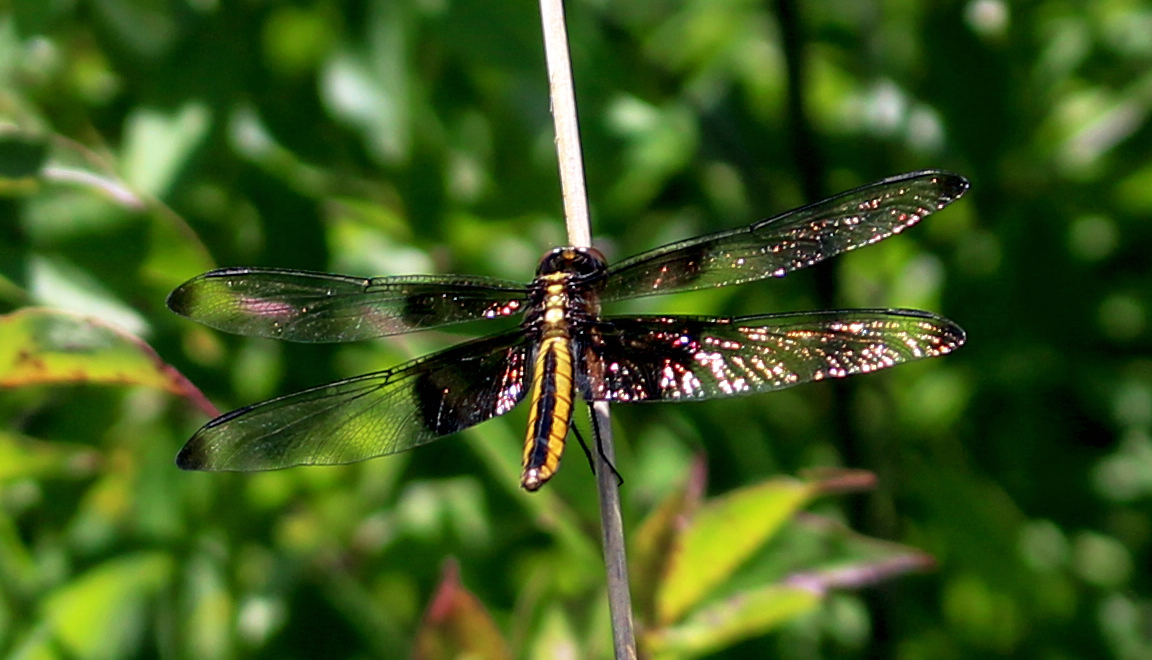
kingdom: Animalia
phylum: Arthropoda
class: Insecta
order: Odonata
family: Libellulidae
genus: Libellula
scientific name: Libellula luctuosa
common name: Widow skimmer
